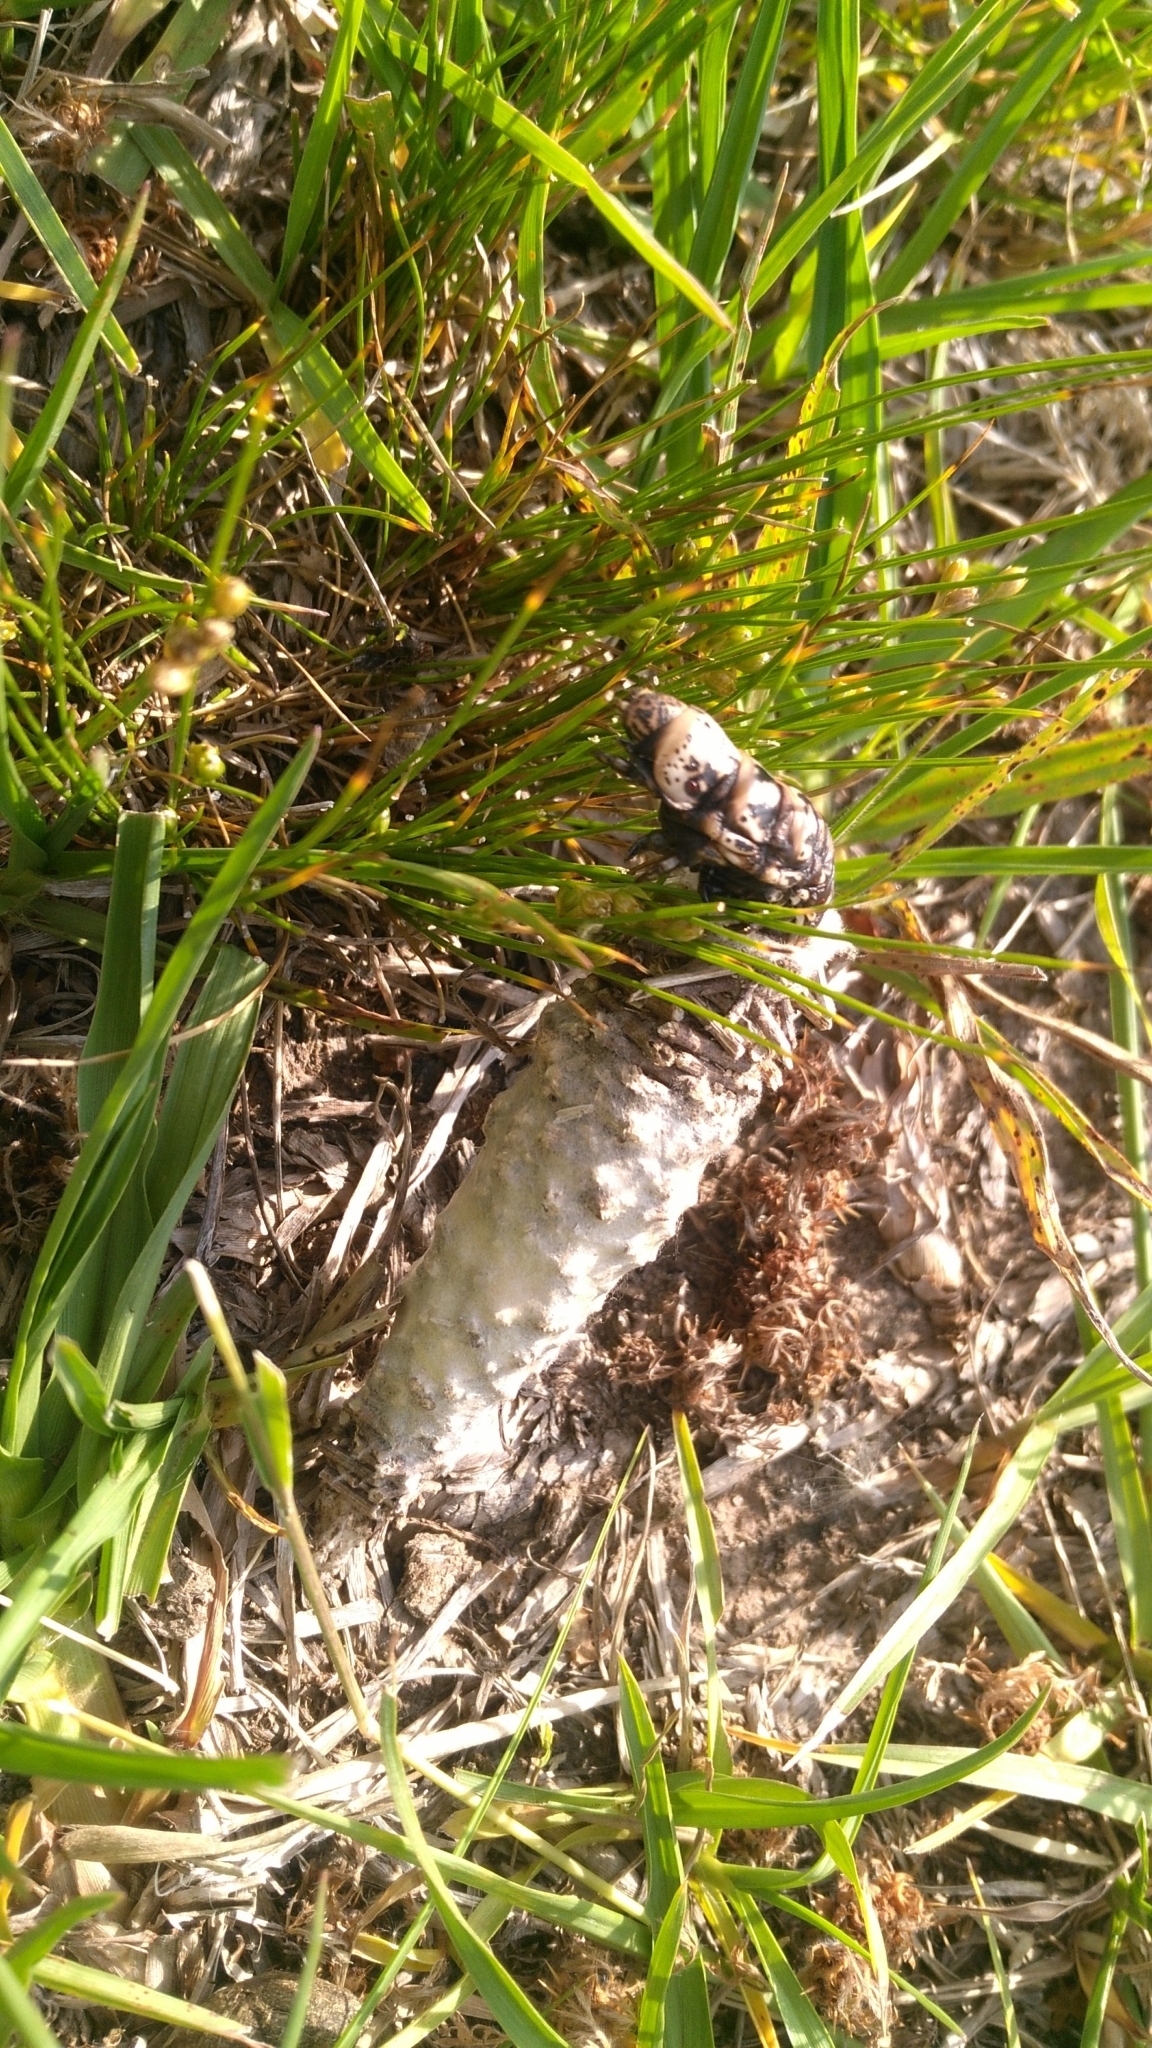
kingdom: Animalia
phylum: Arthropoda
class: Insecta
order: Lepidoptera
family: Psychidae
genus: Oiketicus
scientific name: Oiketicus
